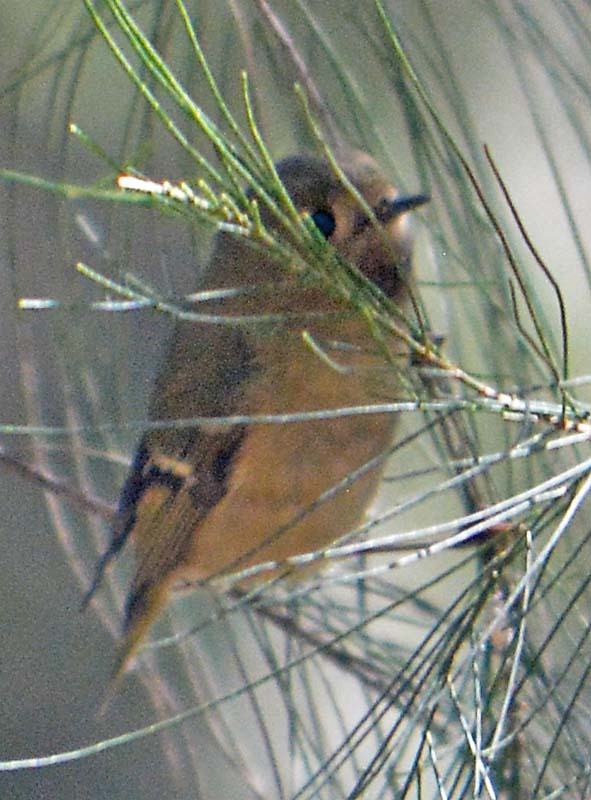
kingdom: Animalia
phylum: Chordata
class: Aves
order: Passeriformes
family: Regulidae
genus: Regulus
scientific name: Regulus calendula
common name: Ruby-crowned kinglet
